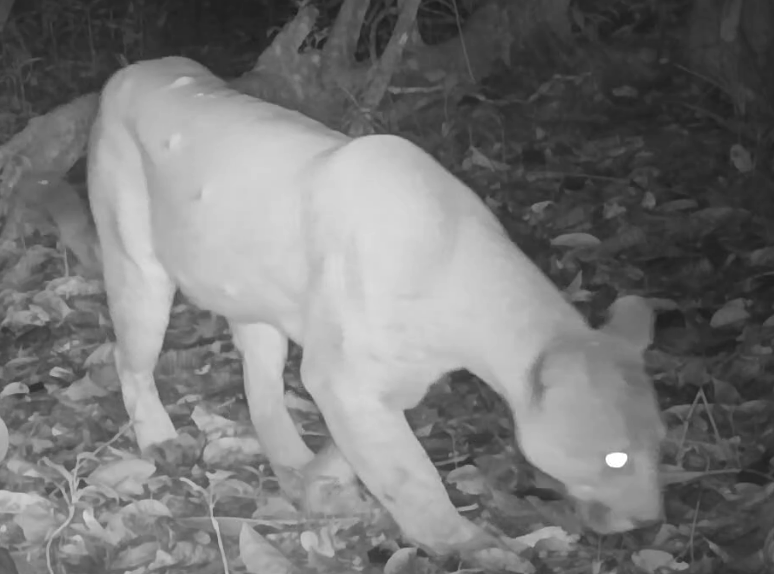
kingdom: Animalia
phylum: Chordata
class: Mammalia
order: Carnivora
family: Felidae
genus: Puma
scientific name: Puma concolor
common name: Puma
